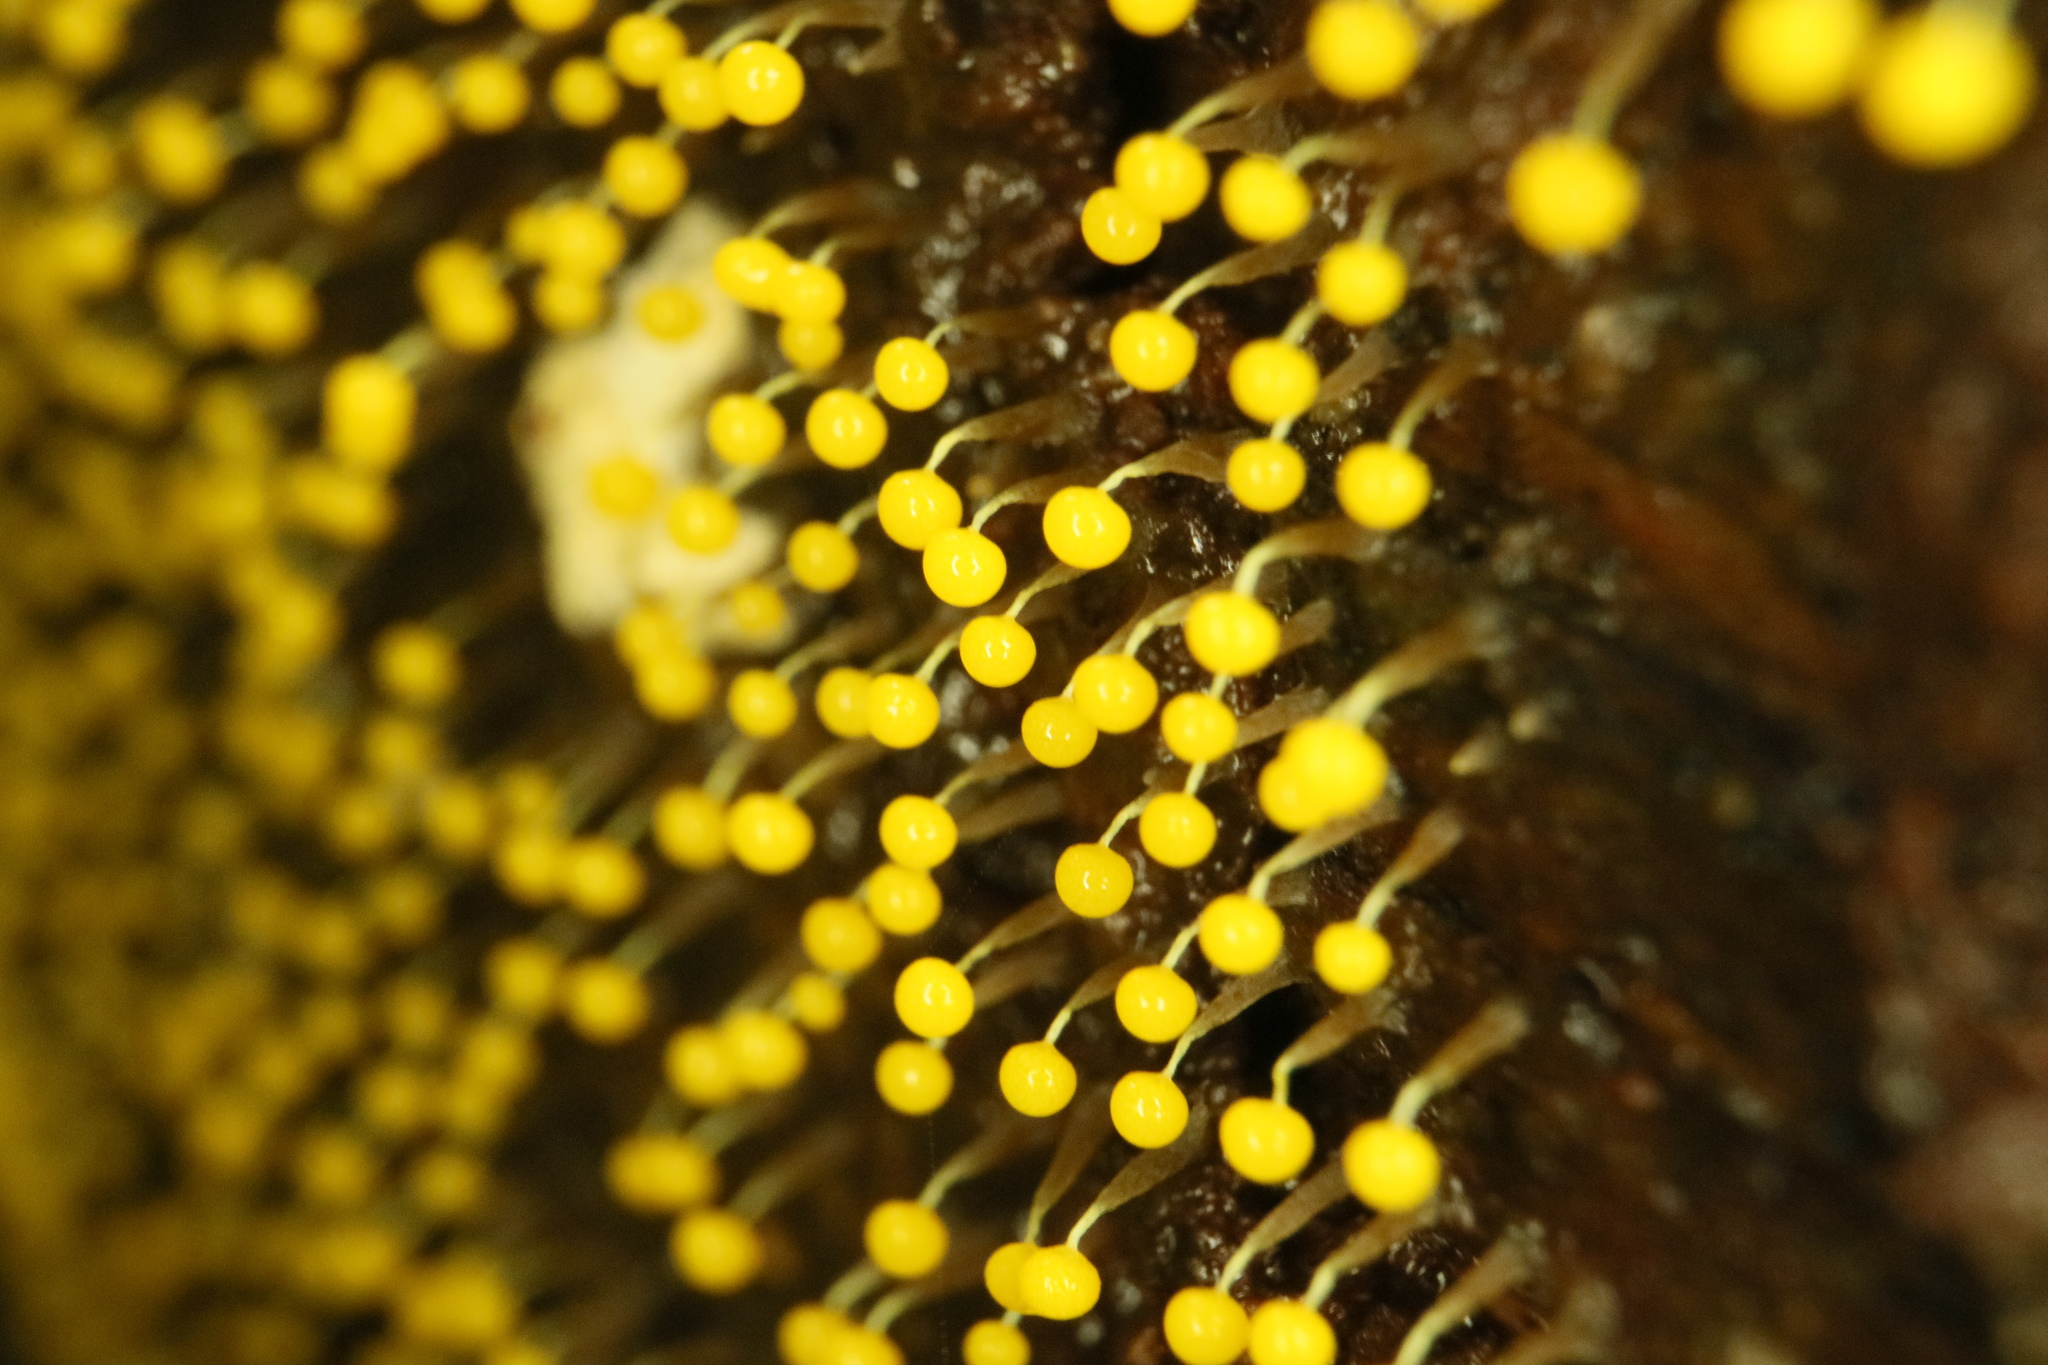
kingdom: Protozoa
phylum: Mycetozoa
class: Myxomycetes
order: Physarales
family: Physaraceae
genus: Physarum
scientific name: Physarum viride
